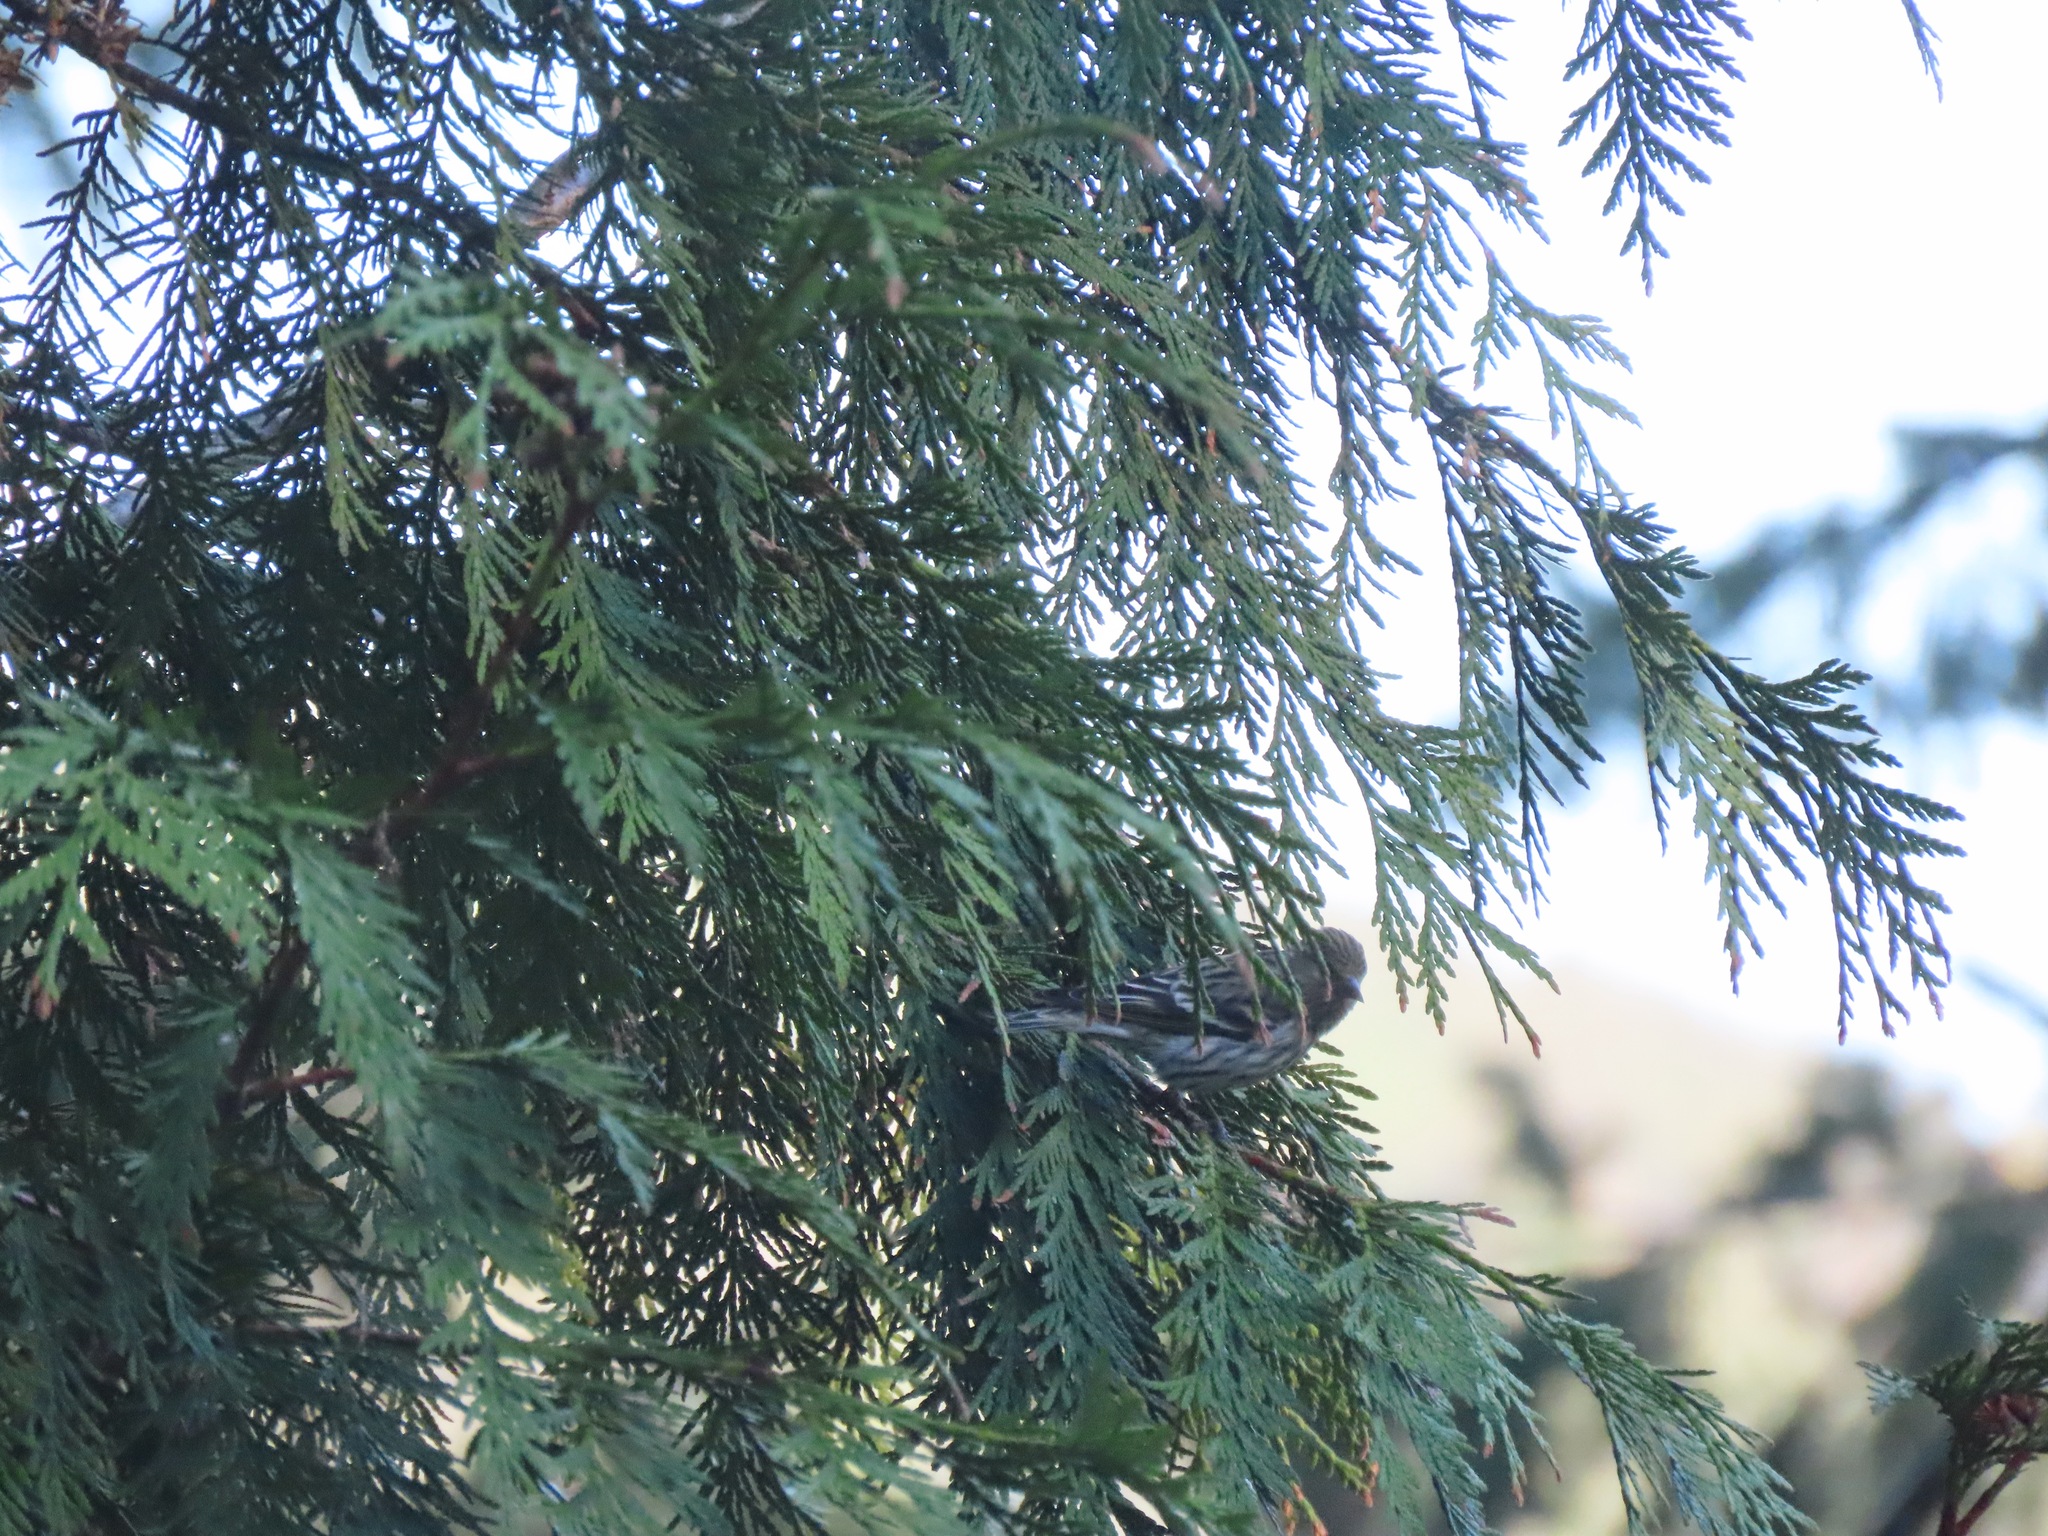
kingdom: Animalia
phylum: Chordata
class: Aves
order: Passeriformes
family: Fringillidae
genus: Spinus
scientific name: Spinus pinus
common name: Pine siskin
